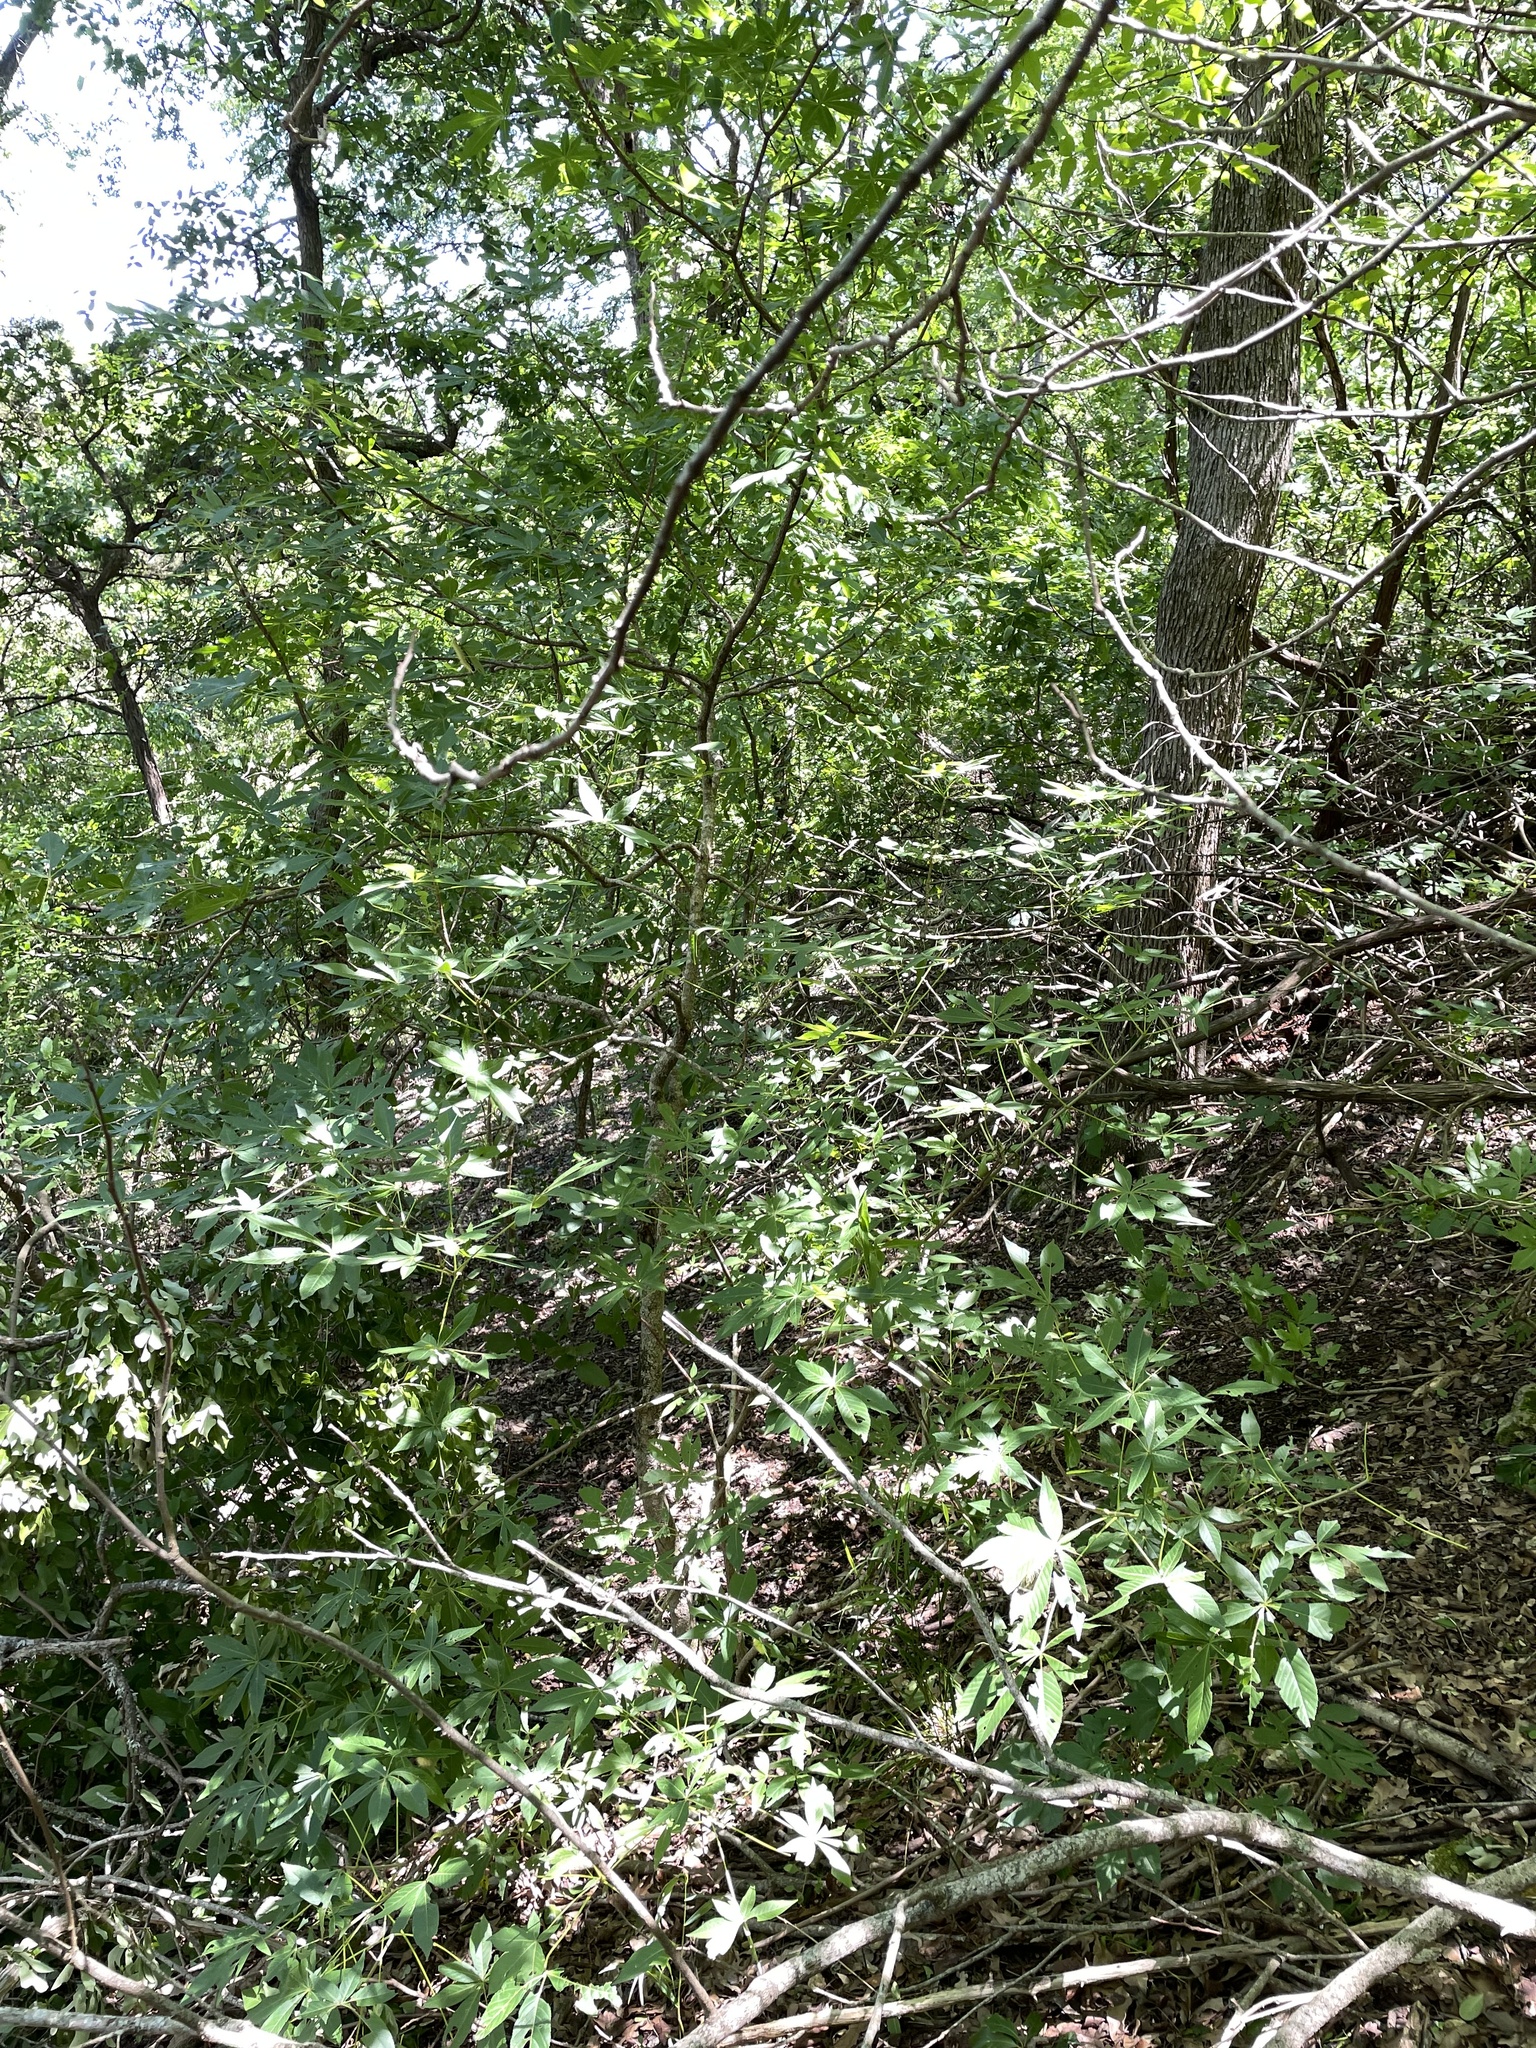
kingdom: Plantae
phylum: Tracheophyta
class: Magnoliopsida
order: Sapindales
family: Sapindaceae
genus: Aesculus
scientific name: Aesculus glabra
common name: Ohio buckeye
